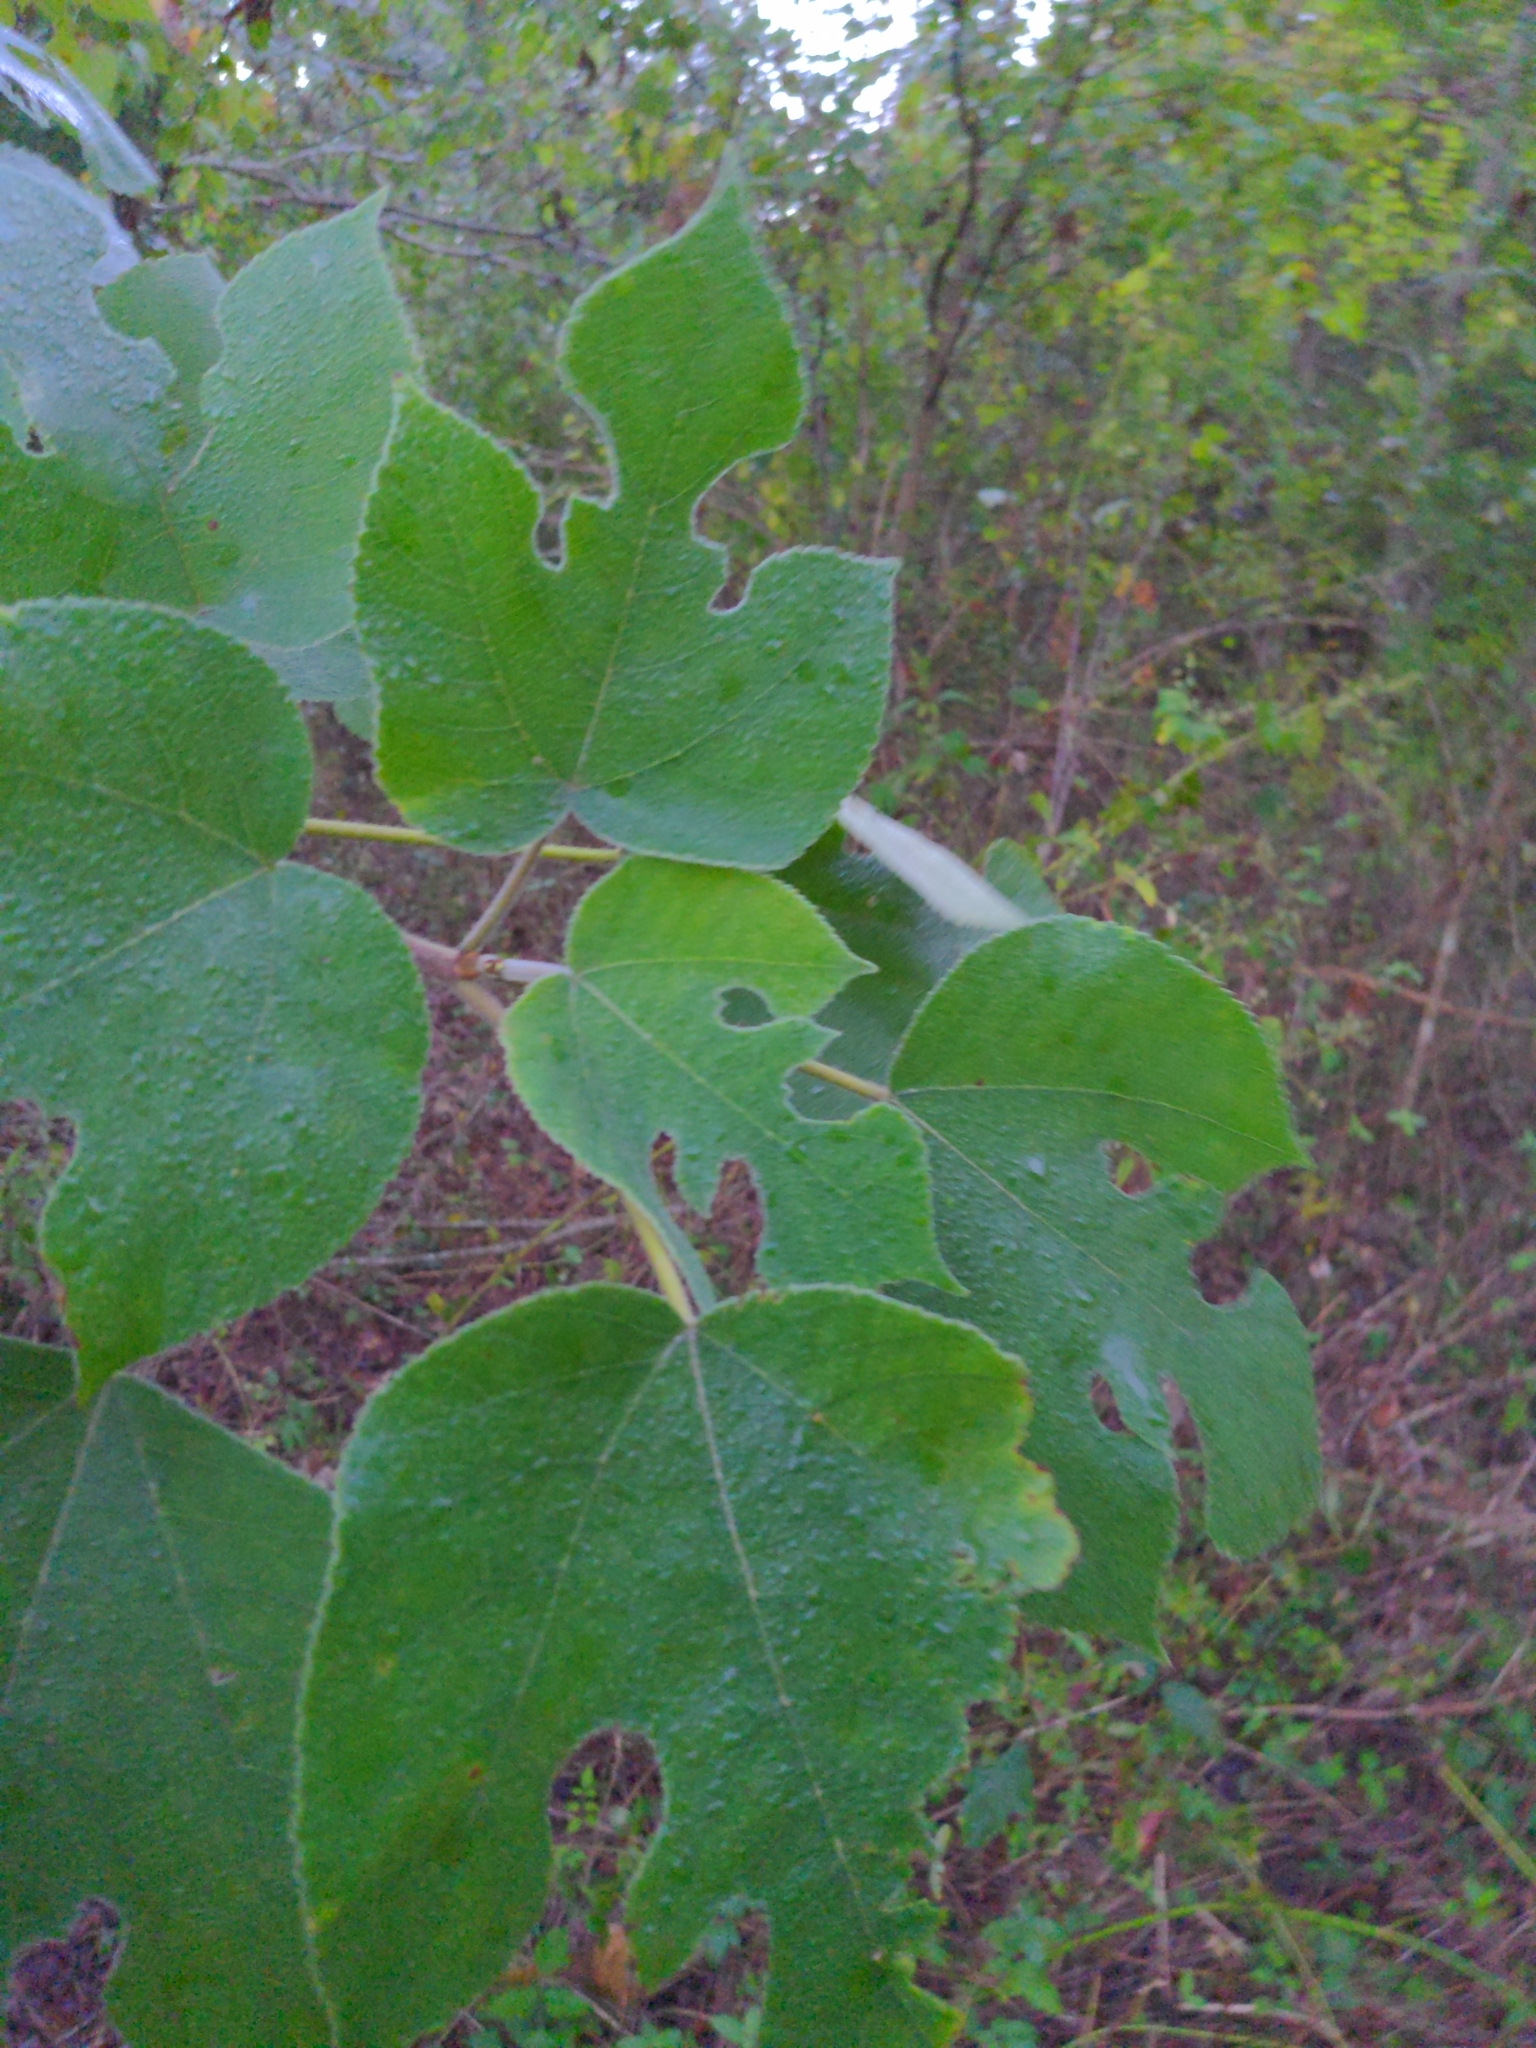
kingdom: Plantae
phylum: Tracheophyta
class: Magnoliopsida
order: Rosales
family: Moraceae
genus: Broussonetia
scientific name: Broussonetia papyrifera
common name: Paper mulberry
